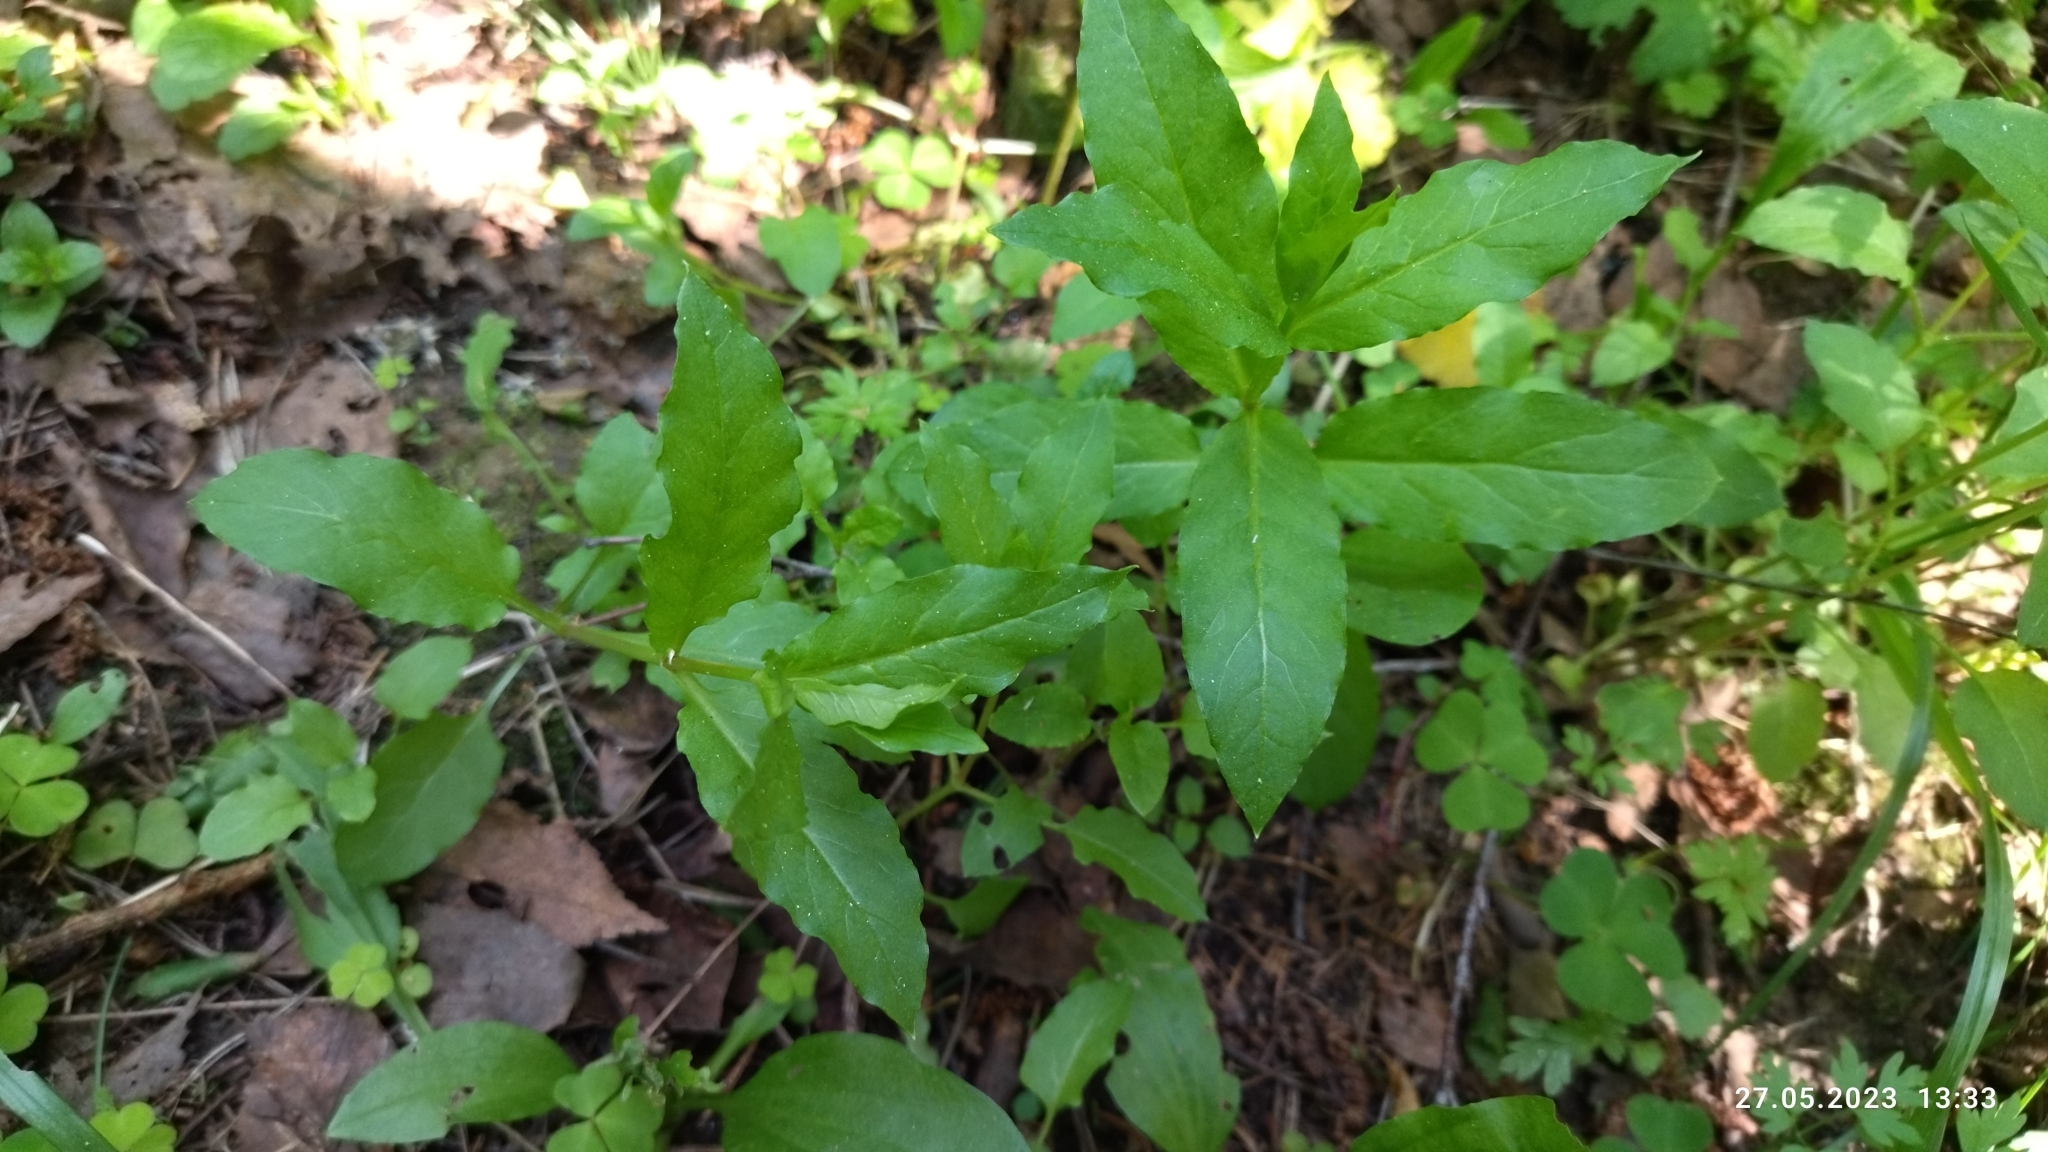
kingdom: Plantae
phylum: Tracheophyta
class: Magnoliopsida
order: Caryophyllales
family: Caryophyllaceae
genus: Stellaria
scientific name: Stellaria aquatica
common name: Water chickweed
